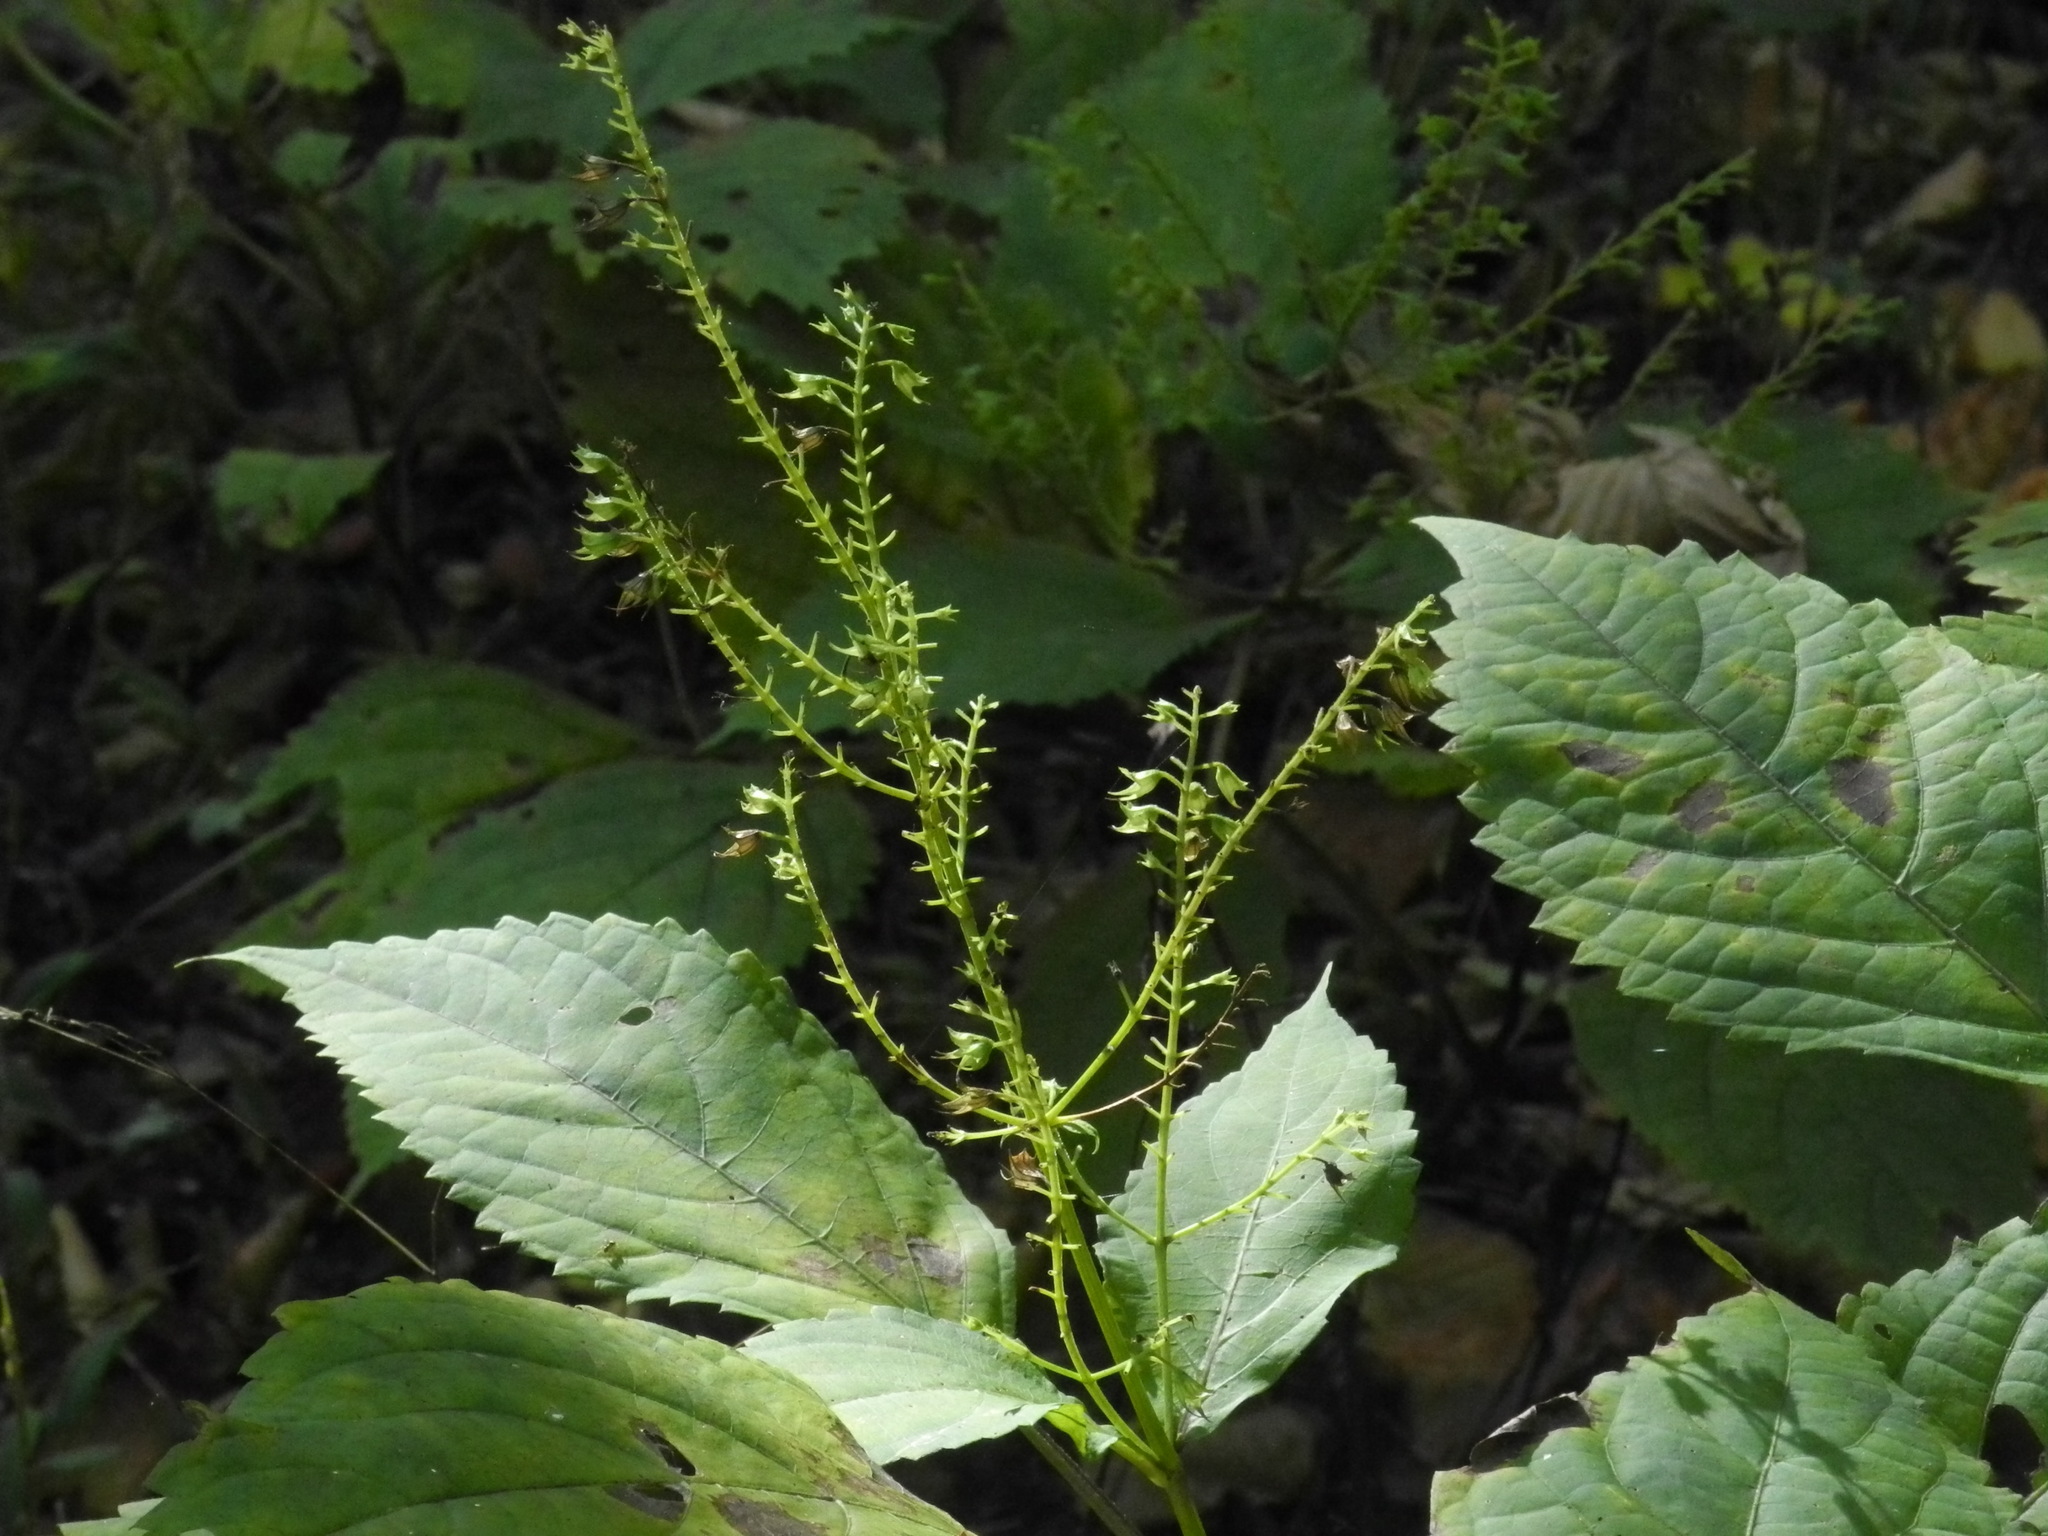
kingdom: Plantae
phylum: Tracheophyta
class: Magnoliopsida
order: Lamiales
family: Lamiaceae
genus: Collinsonia
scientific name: Collinsonia canadensis
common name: Northern horsebalm
